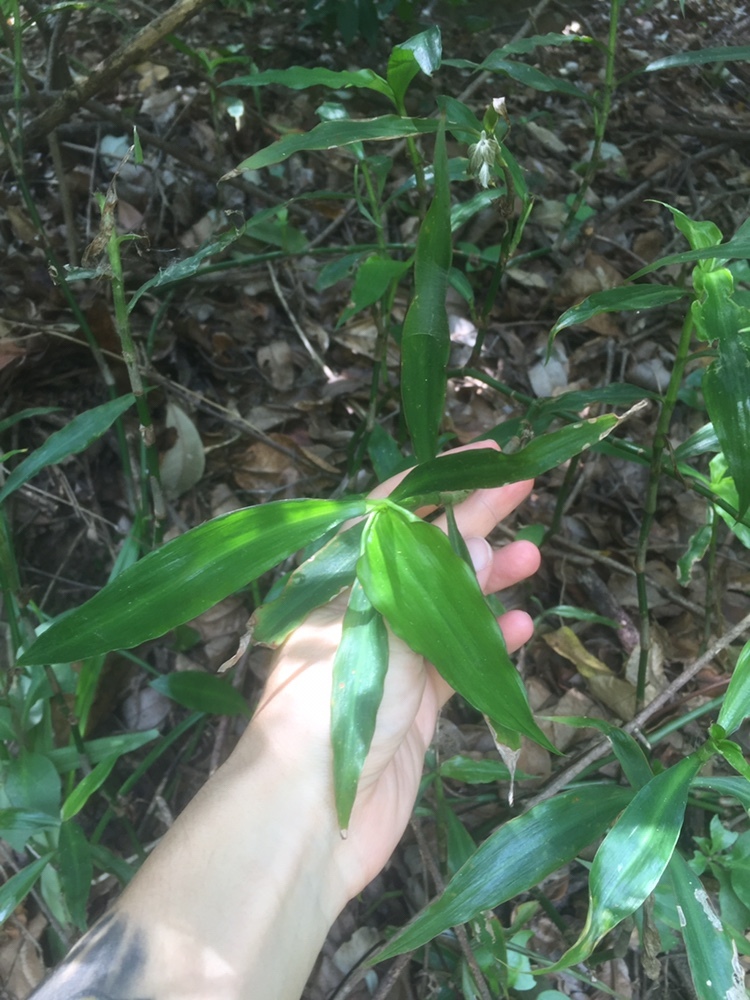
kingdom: Plantae
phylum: Tracheophyta
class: Liliopsida
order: Commelinales
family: Commelinaceae
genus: Coleotrype
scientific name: Coleotrype natalensis
